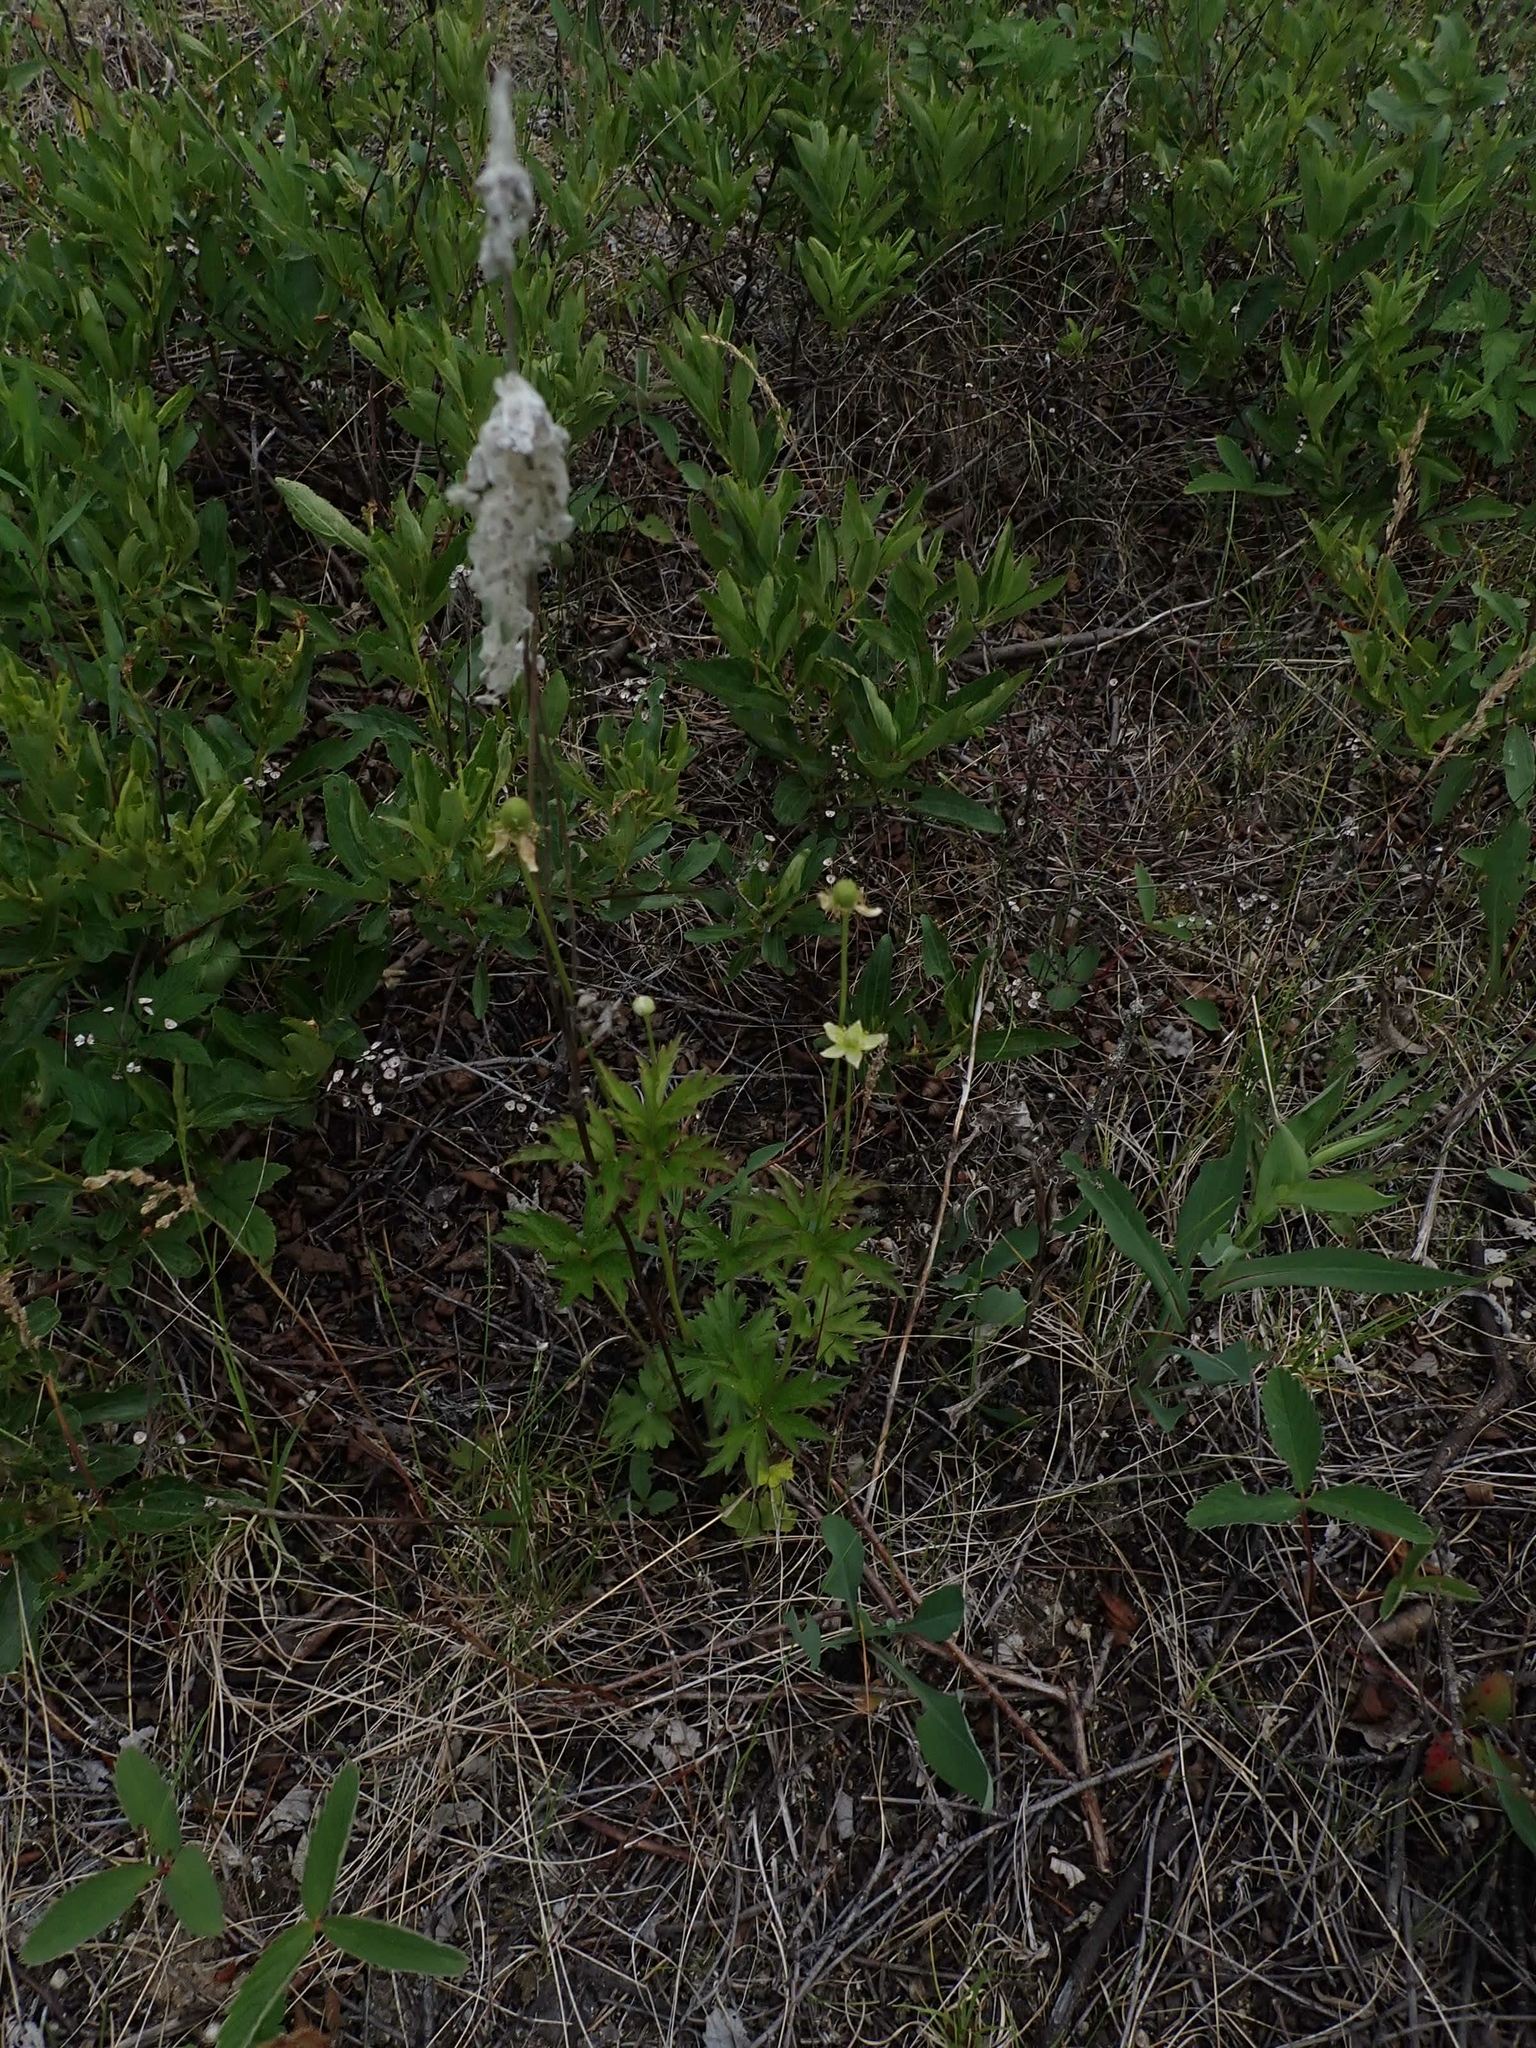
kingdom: Plantae
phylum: Tracheophyta
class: Magnoliopsida
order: Ranunculales
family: Ranunculaceae
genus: Anemone
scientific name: Anemone cylindrica
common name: Candle anemone
